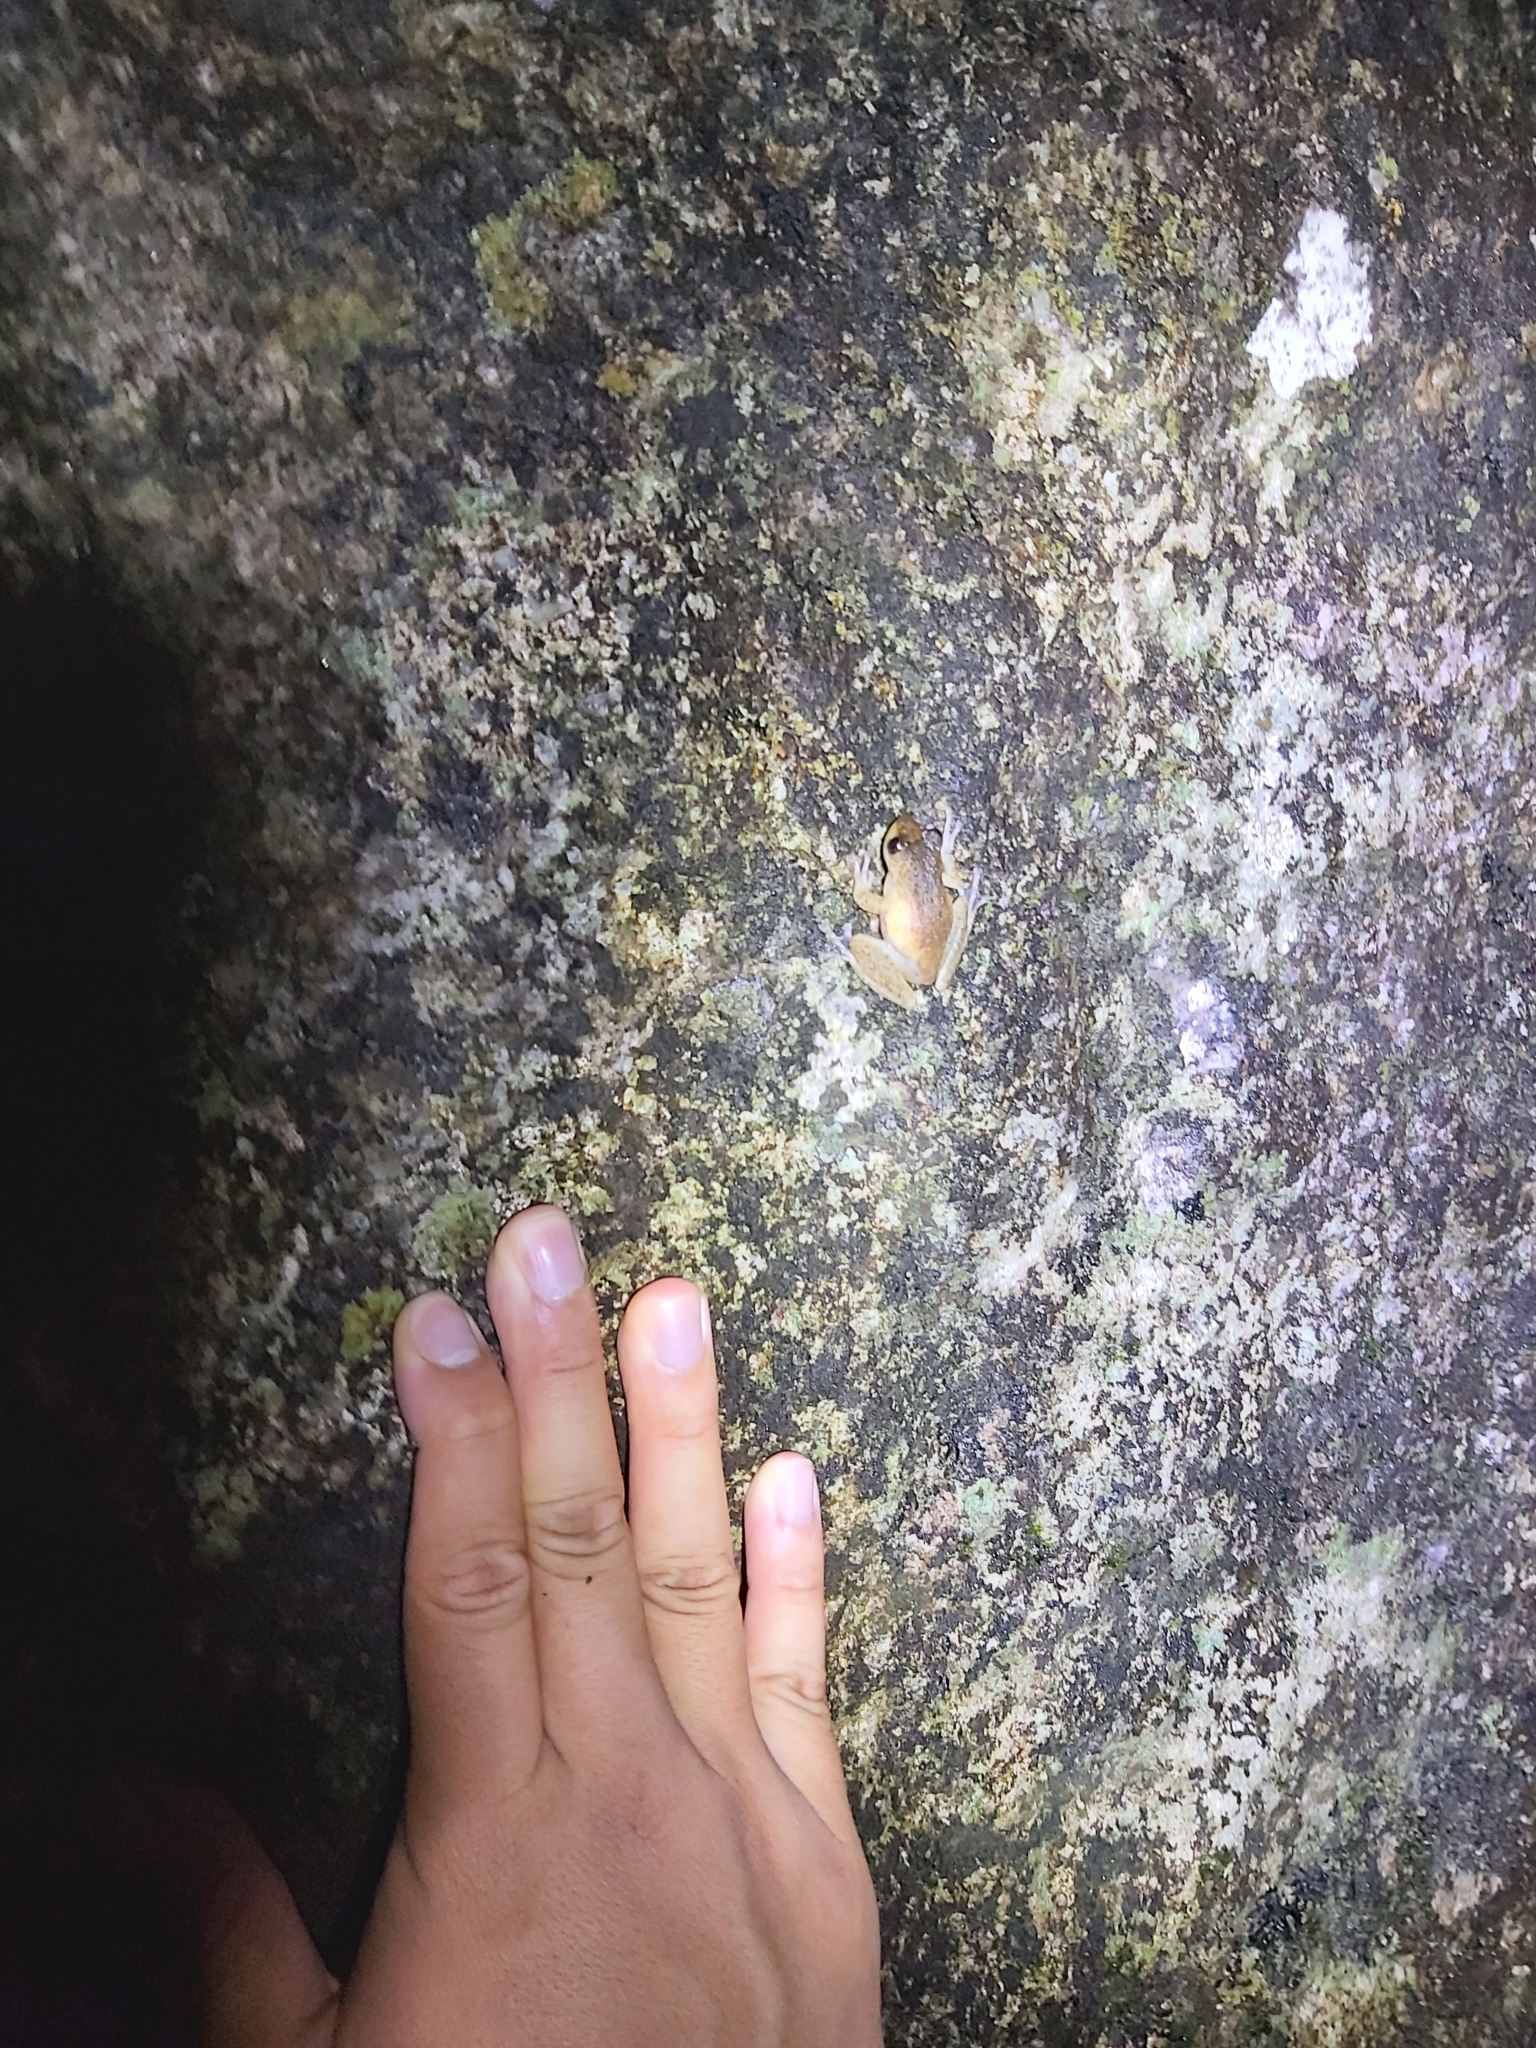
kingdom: Animalia
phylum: Chordata
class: Amphibia
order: Anura
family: Pelodryadidae
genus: Ranoidea
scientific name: Ranoidea rheocola
